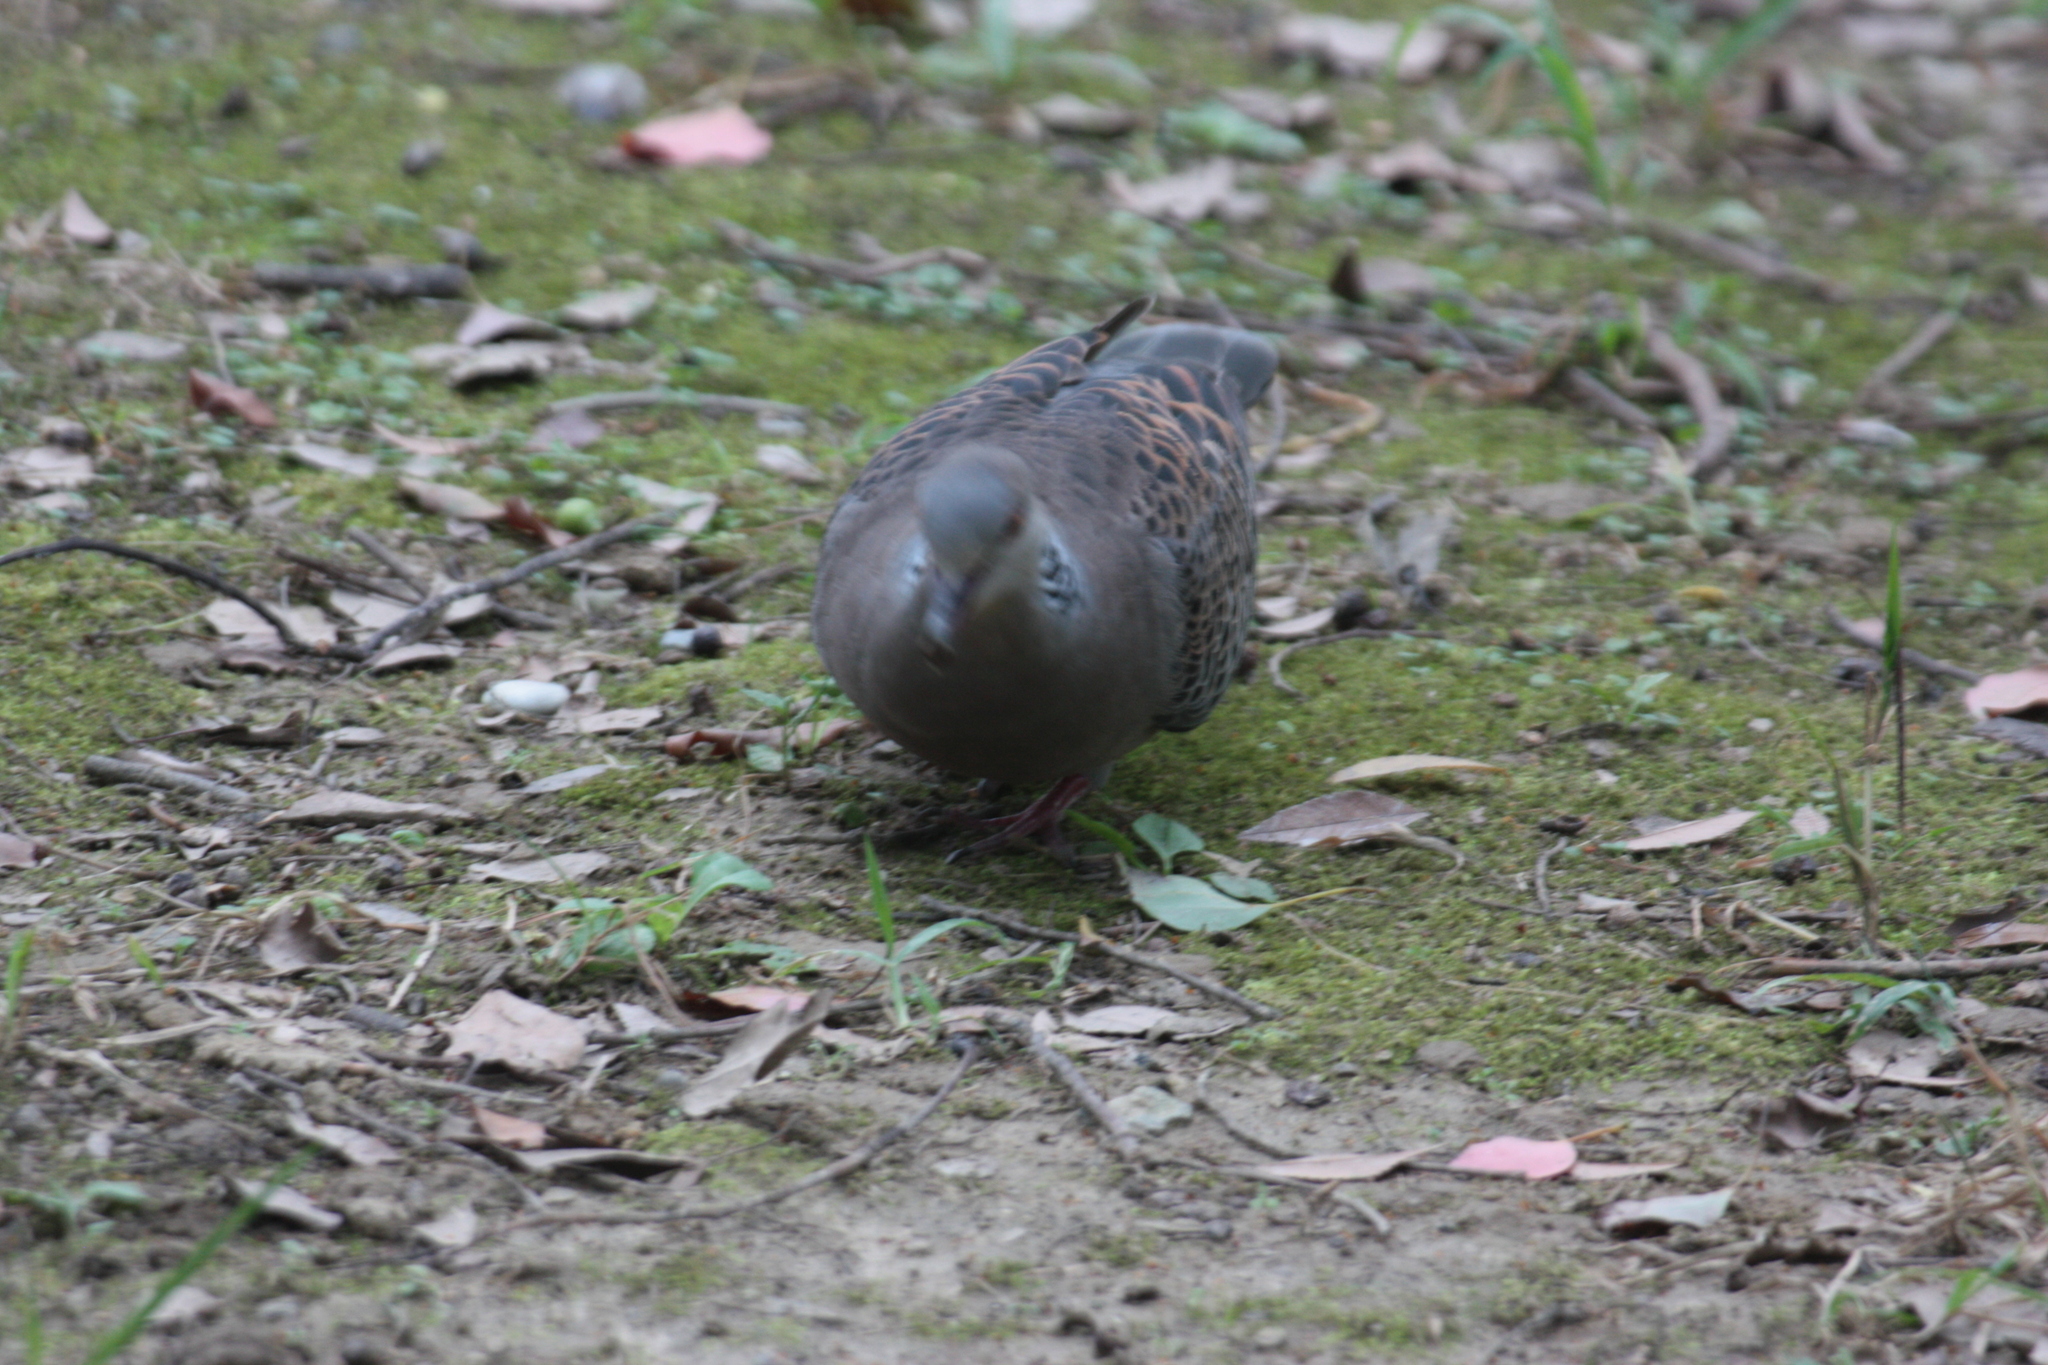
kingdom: Animalia
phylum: Chordata
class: Aves
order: Columbiformes
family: Columbidae
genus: Streptopelia
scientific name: Streptopelia orientalis
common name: Oriental turtle dove
